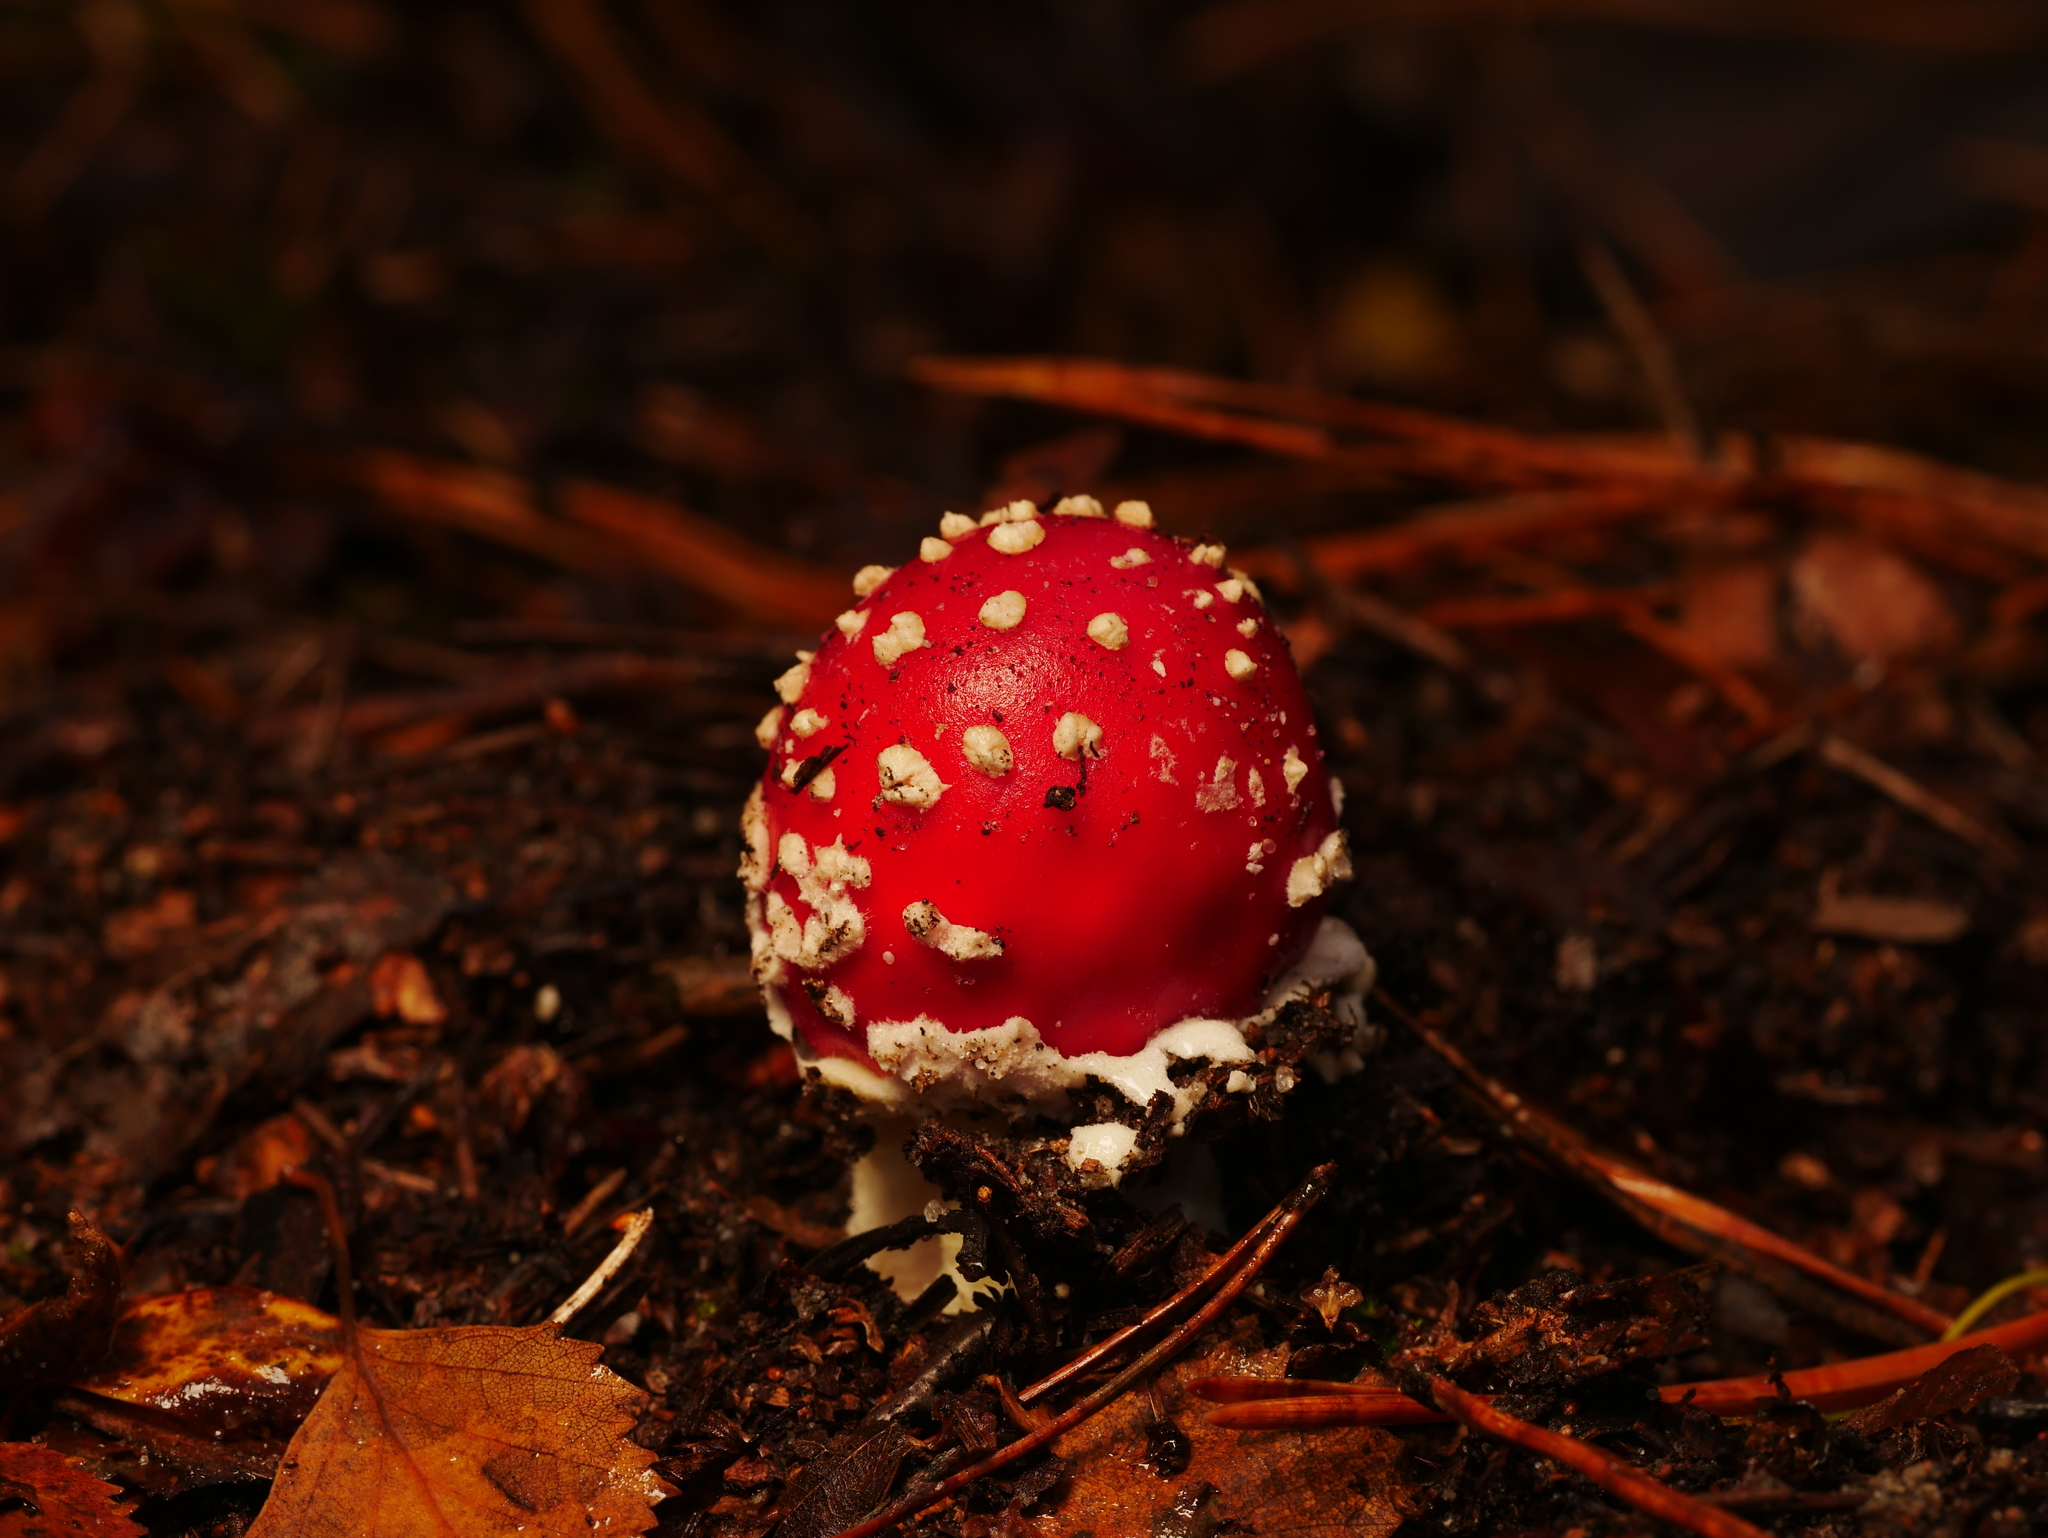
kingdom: Fungi
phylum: Basidiomycota
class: Agaricomycetes
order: Agaricales
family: Amanitaceae
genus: Amanita
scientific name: Amanita muscaria
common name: Fly agaric
